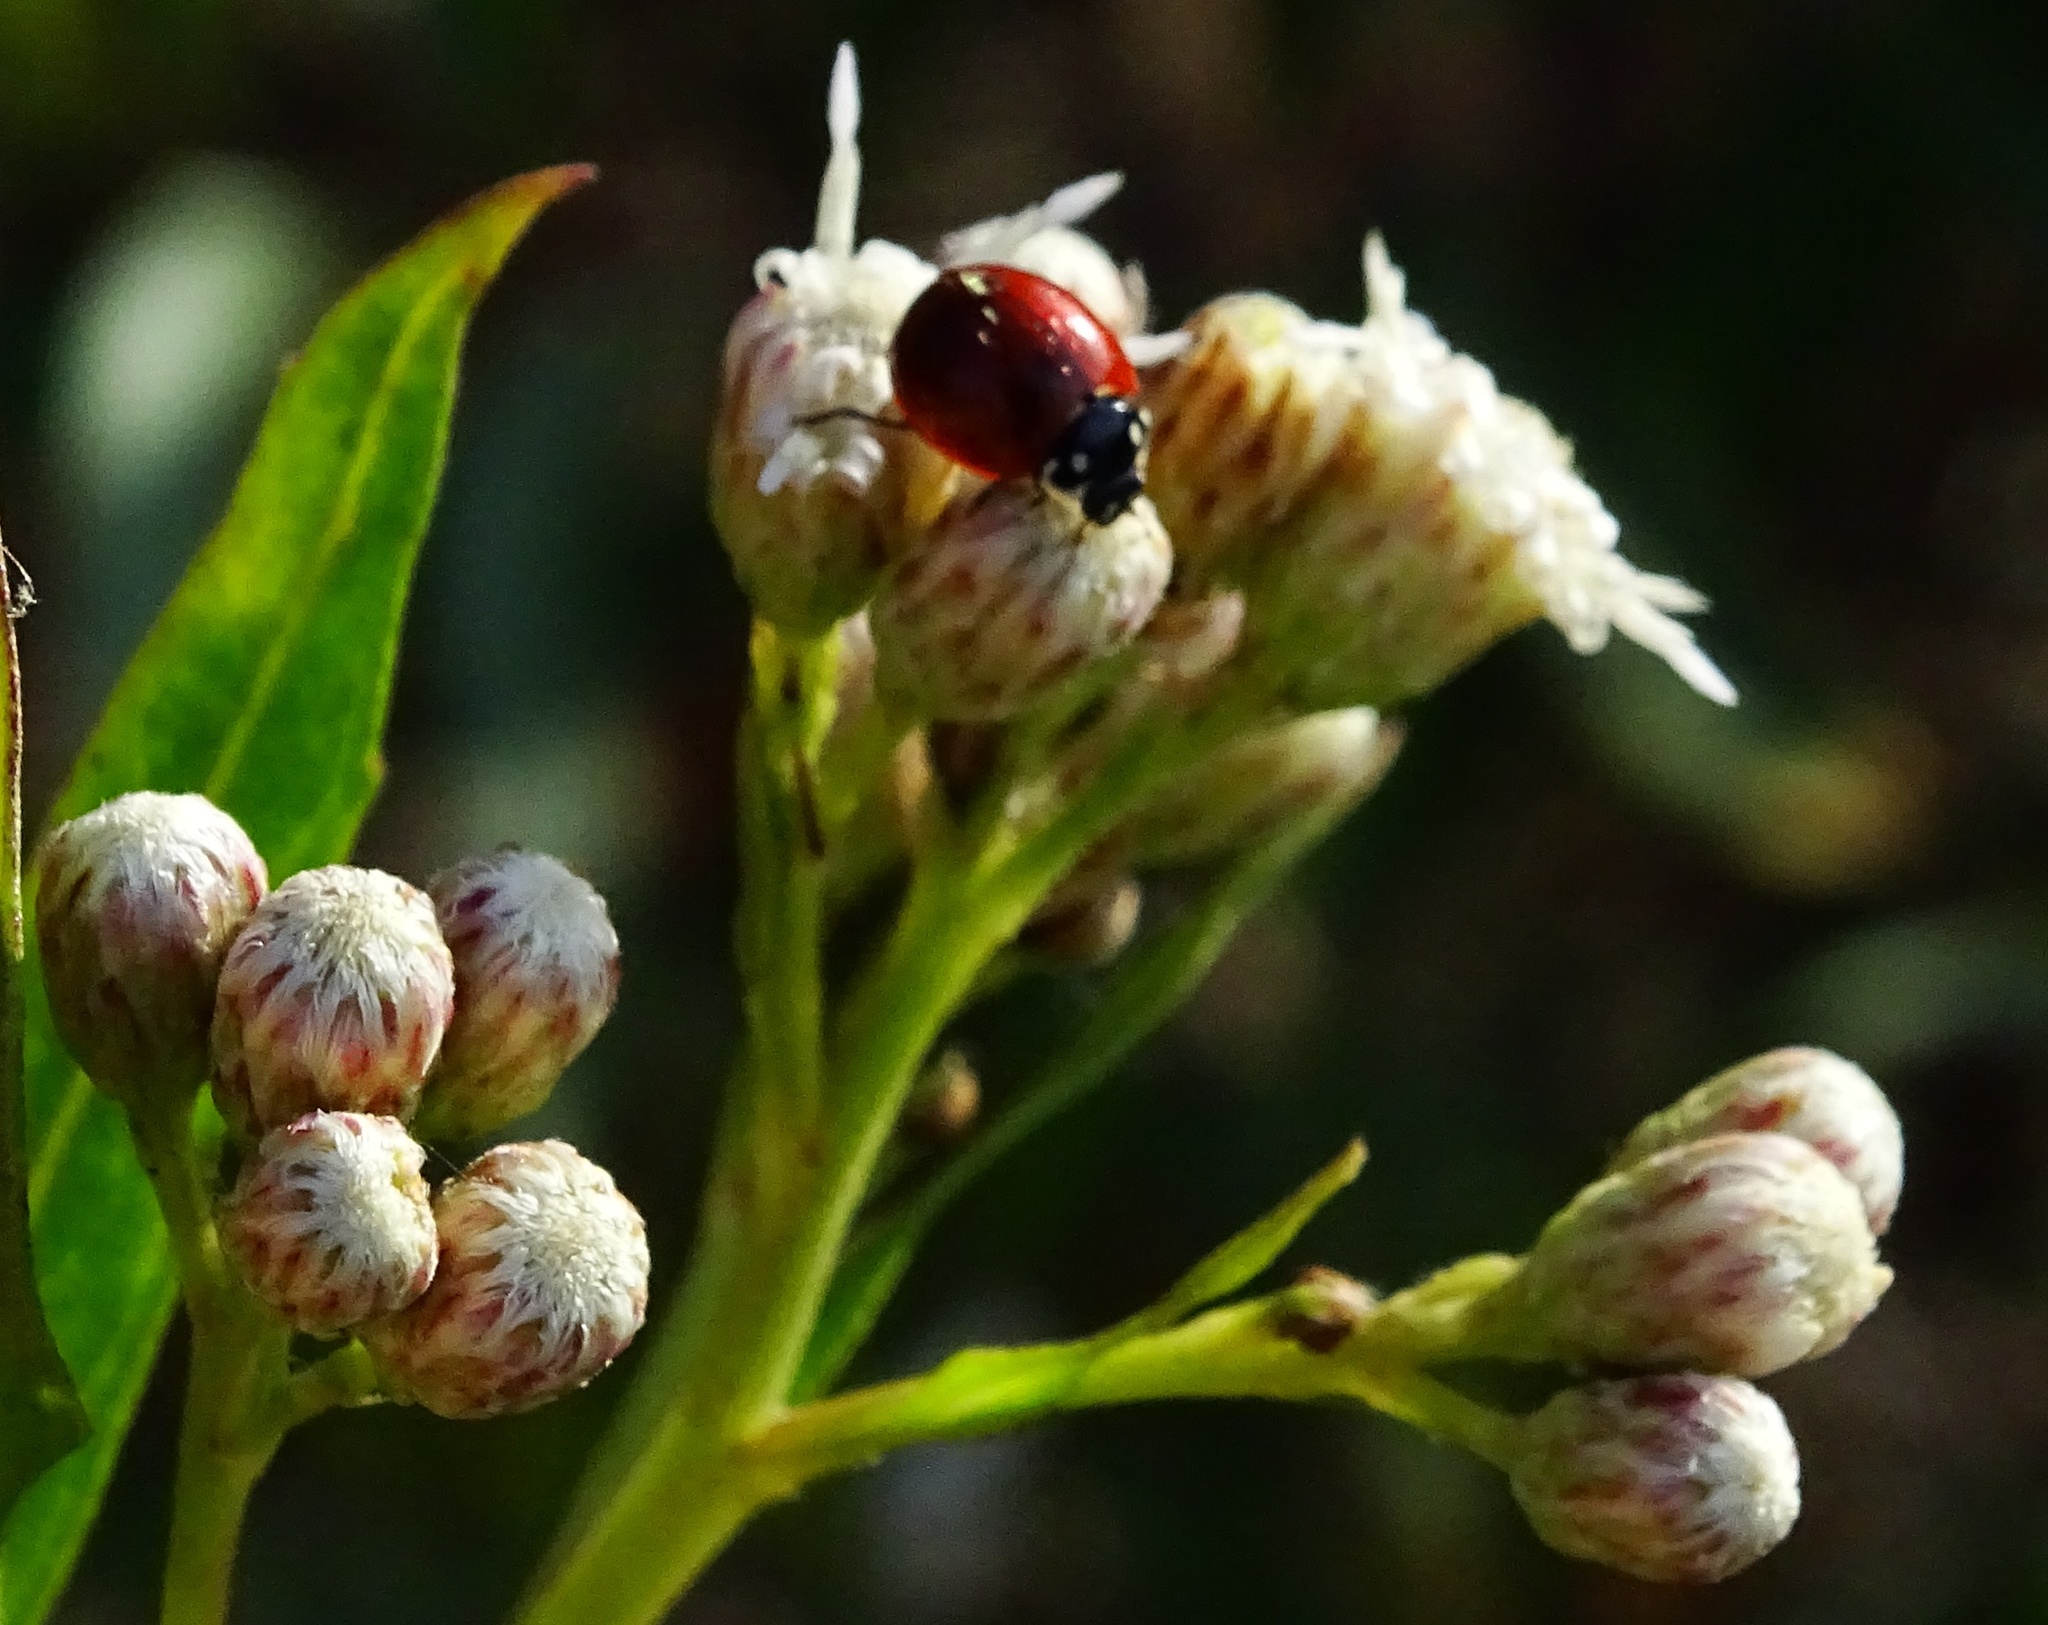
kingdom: Animalia
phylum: Arthropoda
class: Insecta
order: Coleoptera
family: Coccinellidae
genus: Cycloneda
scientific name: Cycloneda sanguinea
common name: Ladybird beetle
